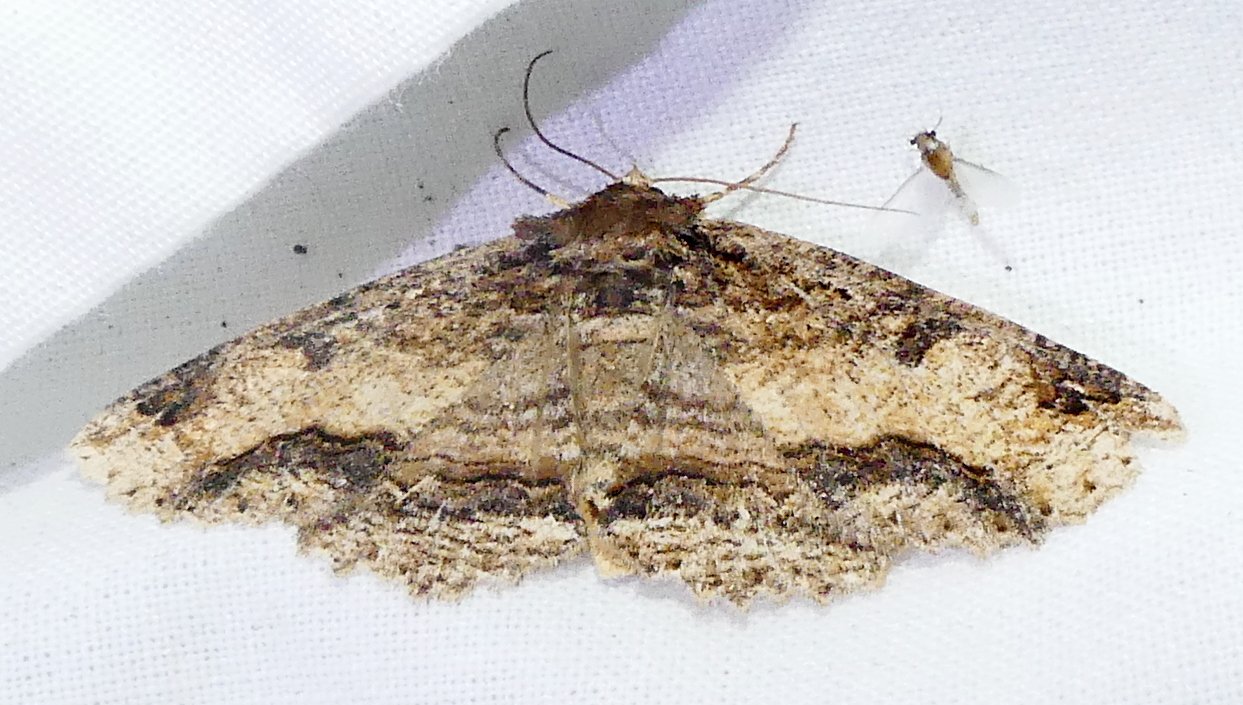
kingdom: Animalia
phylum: Arthropoda
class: Insecta
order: Lepidoptera
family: Erebidae
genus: Zale
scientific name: Zale minerea
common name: Colorful zale moth
